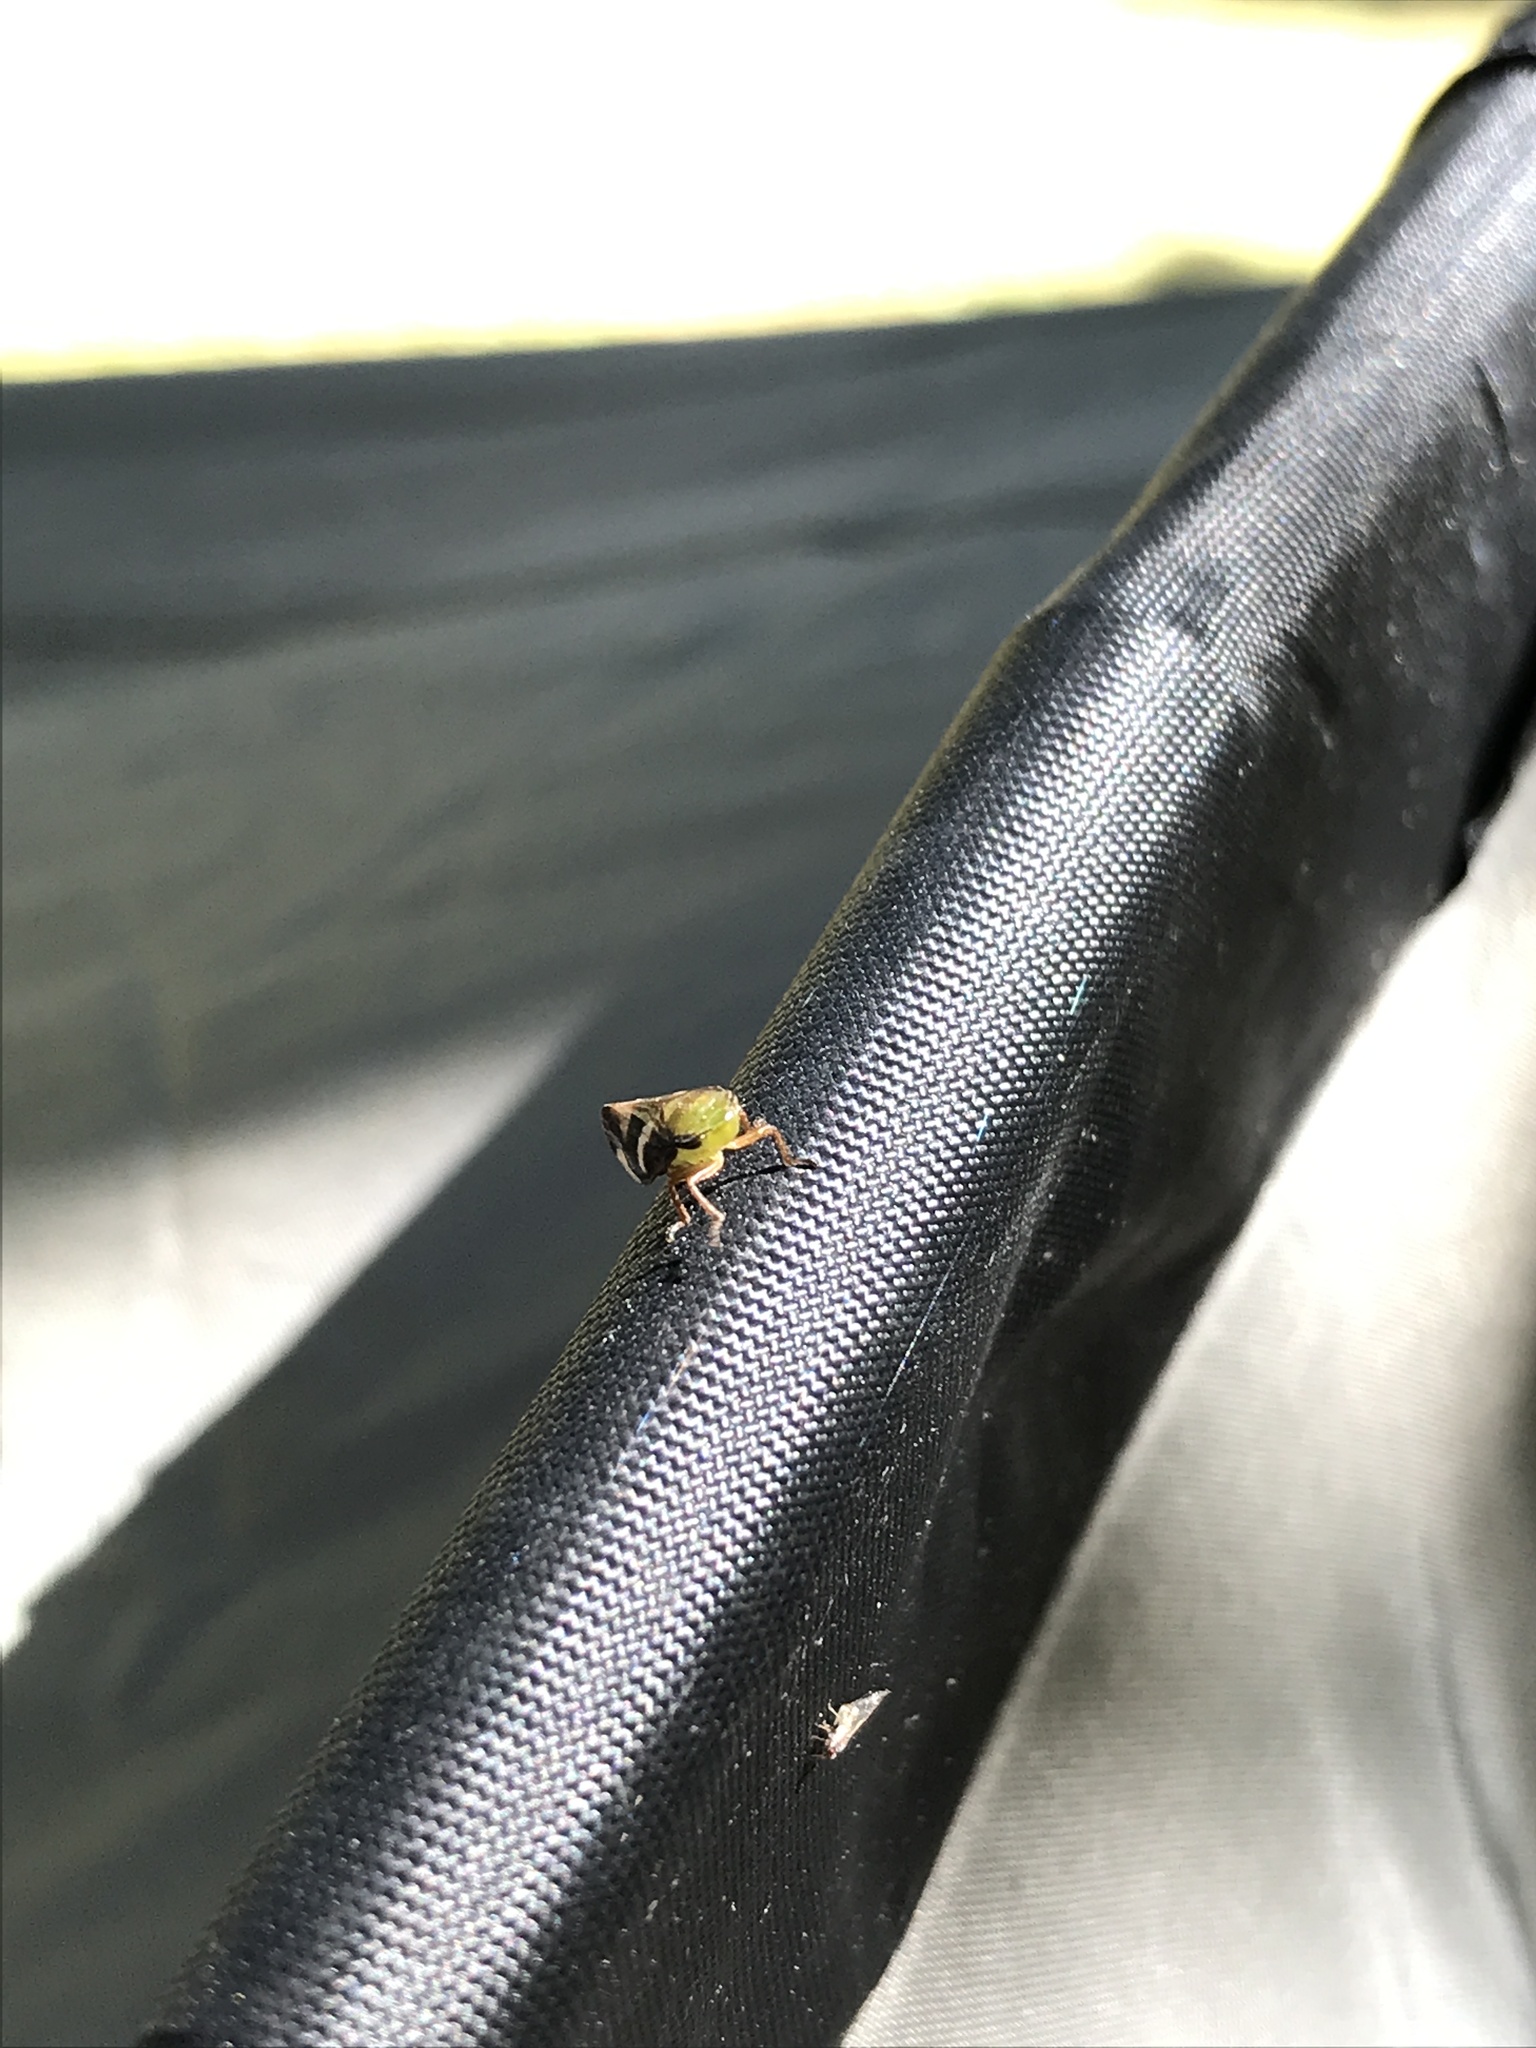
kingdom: Animalia
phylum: Arthropoda
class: Insecta
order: Hemiptera
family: Aphrophoridae
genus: Carystoterpa
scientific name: Carystoterpa fingens
